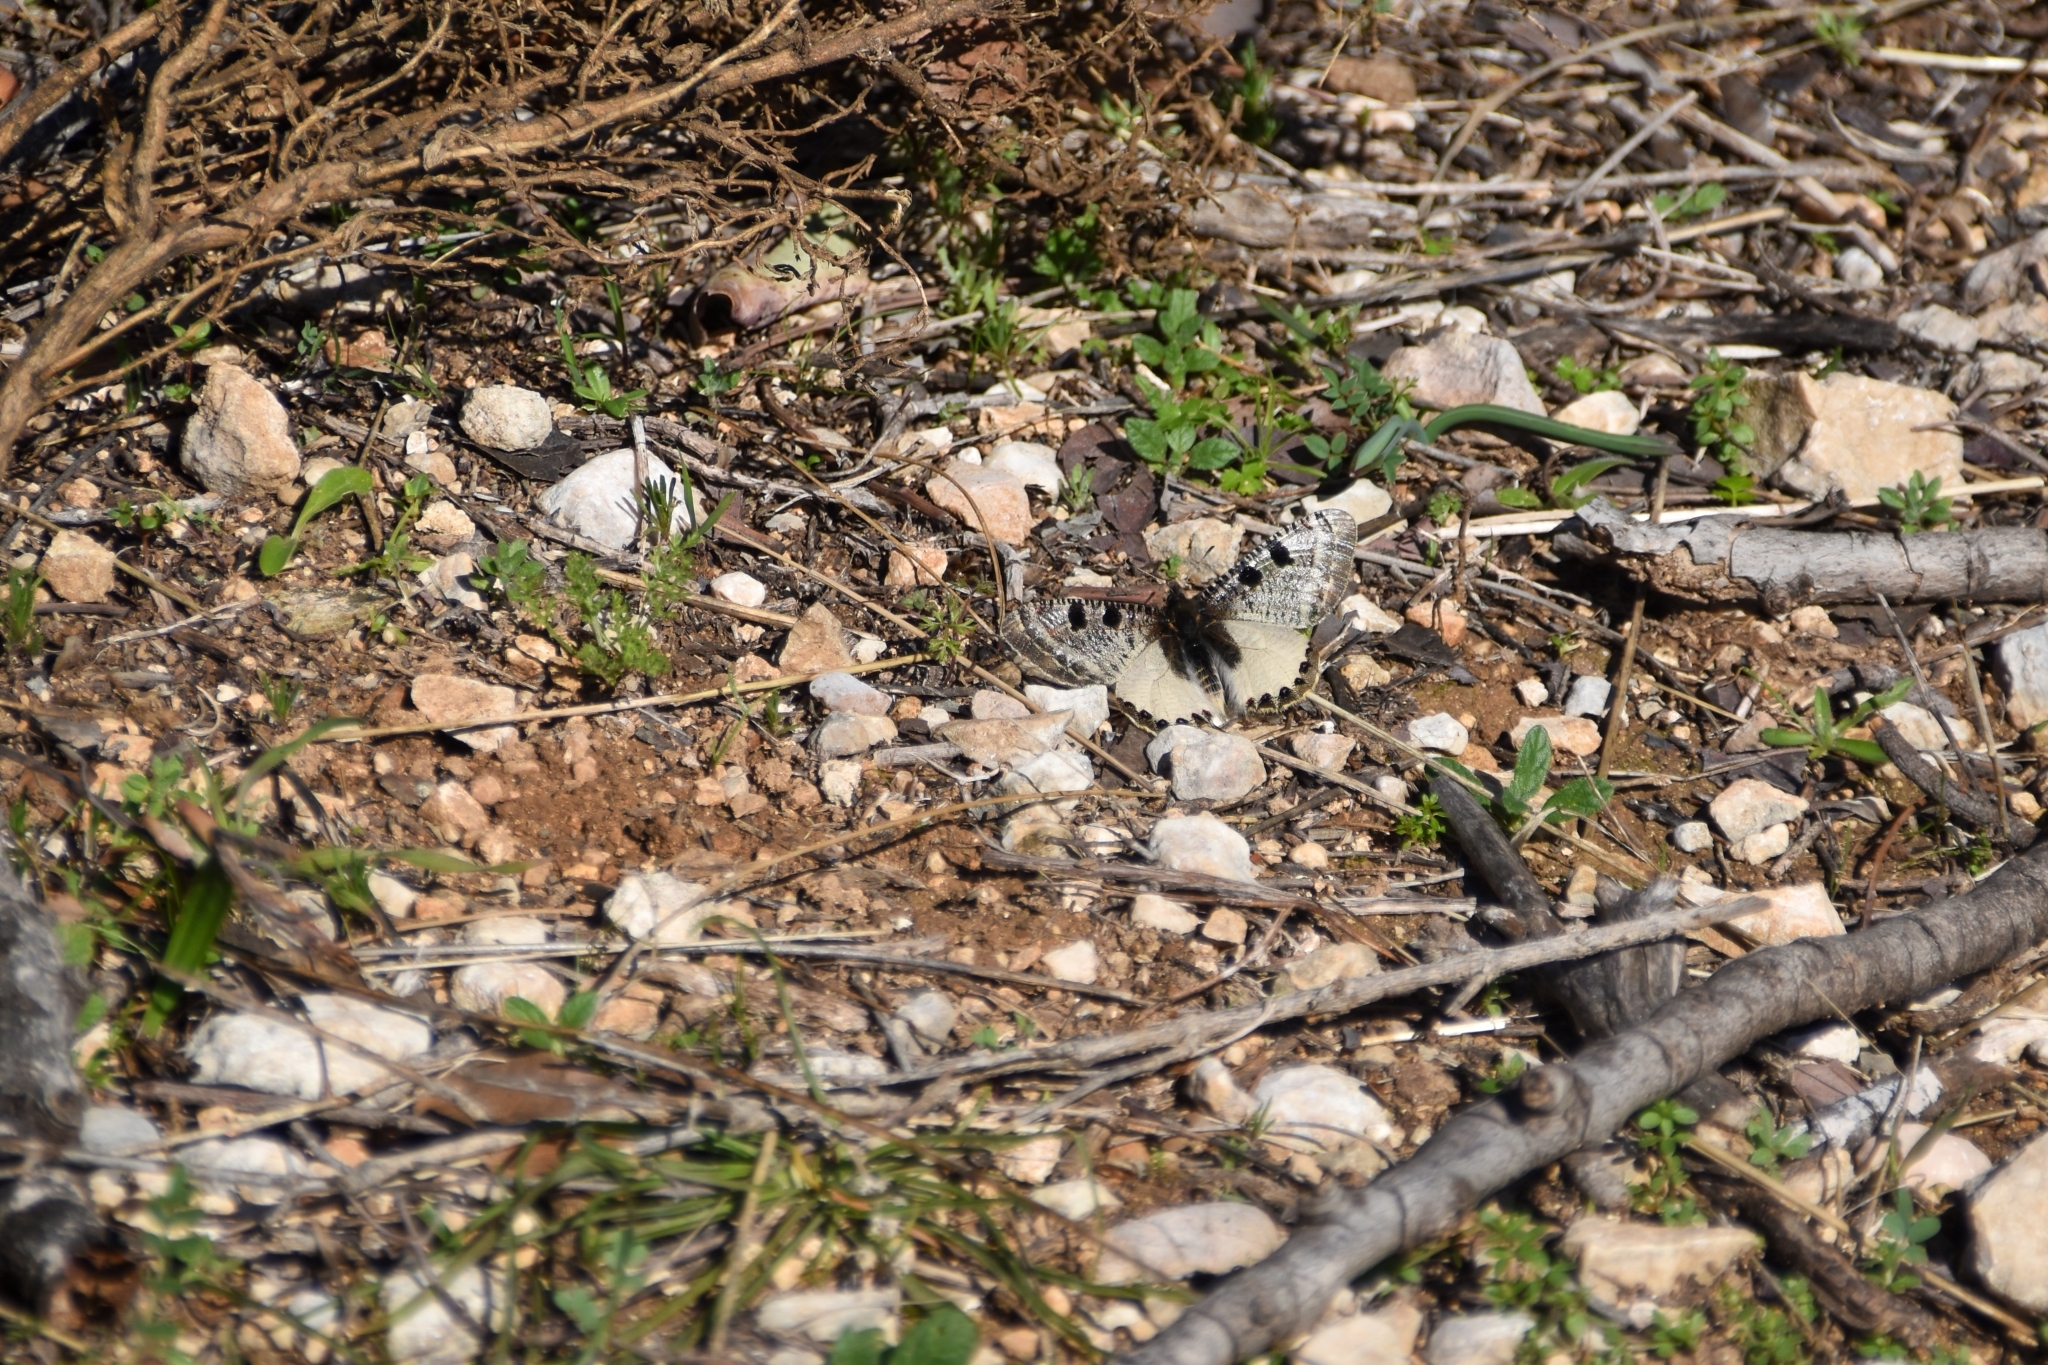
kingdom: Animalia
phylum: Arthropoda
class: Insecta
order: Lepidoptera
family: Papilionidae
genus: Archon
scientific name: Archon apollinus
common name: False apollo
